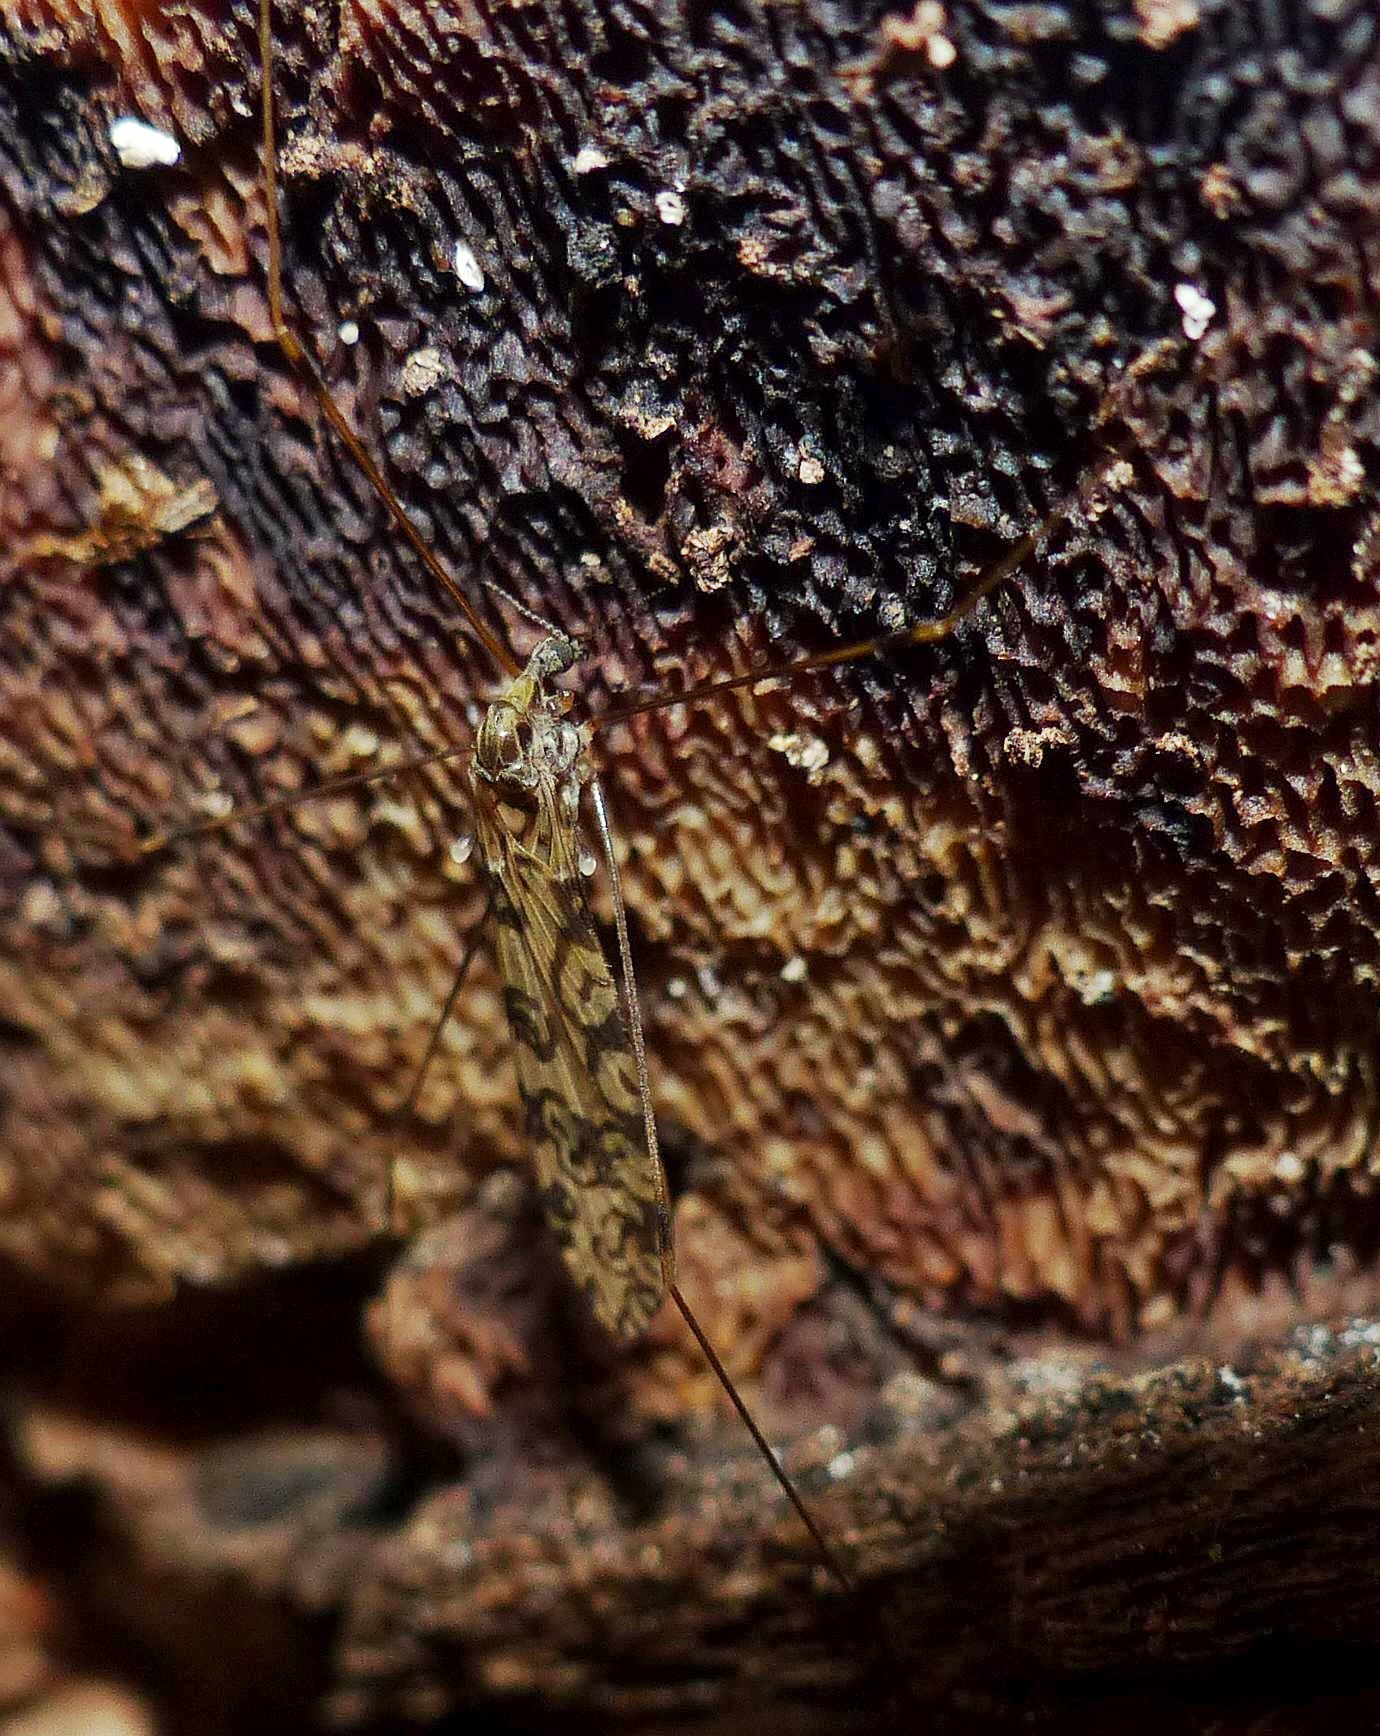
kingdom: Animalia
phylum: Arthropoda
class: Insecta
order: Diptera
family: Limoniidae
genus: Limonia
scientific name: Limonia annulata
